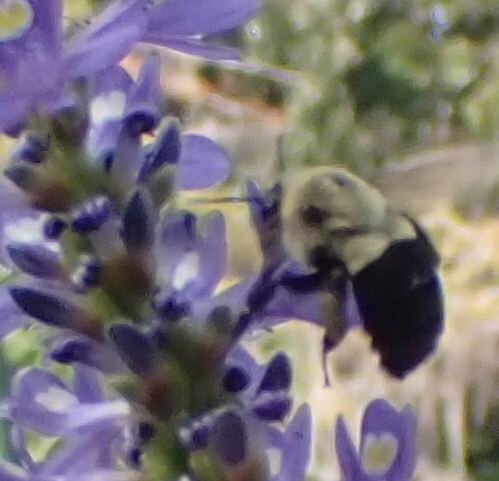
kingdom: Animalia
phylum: Arthropoda
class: Insecta
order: Hymenoptera
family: Apidae
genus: Bombus
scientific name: Bombus impatiens
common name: Common eastern bumble bee
